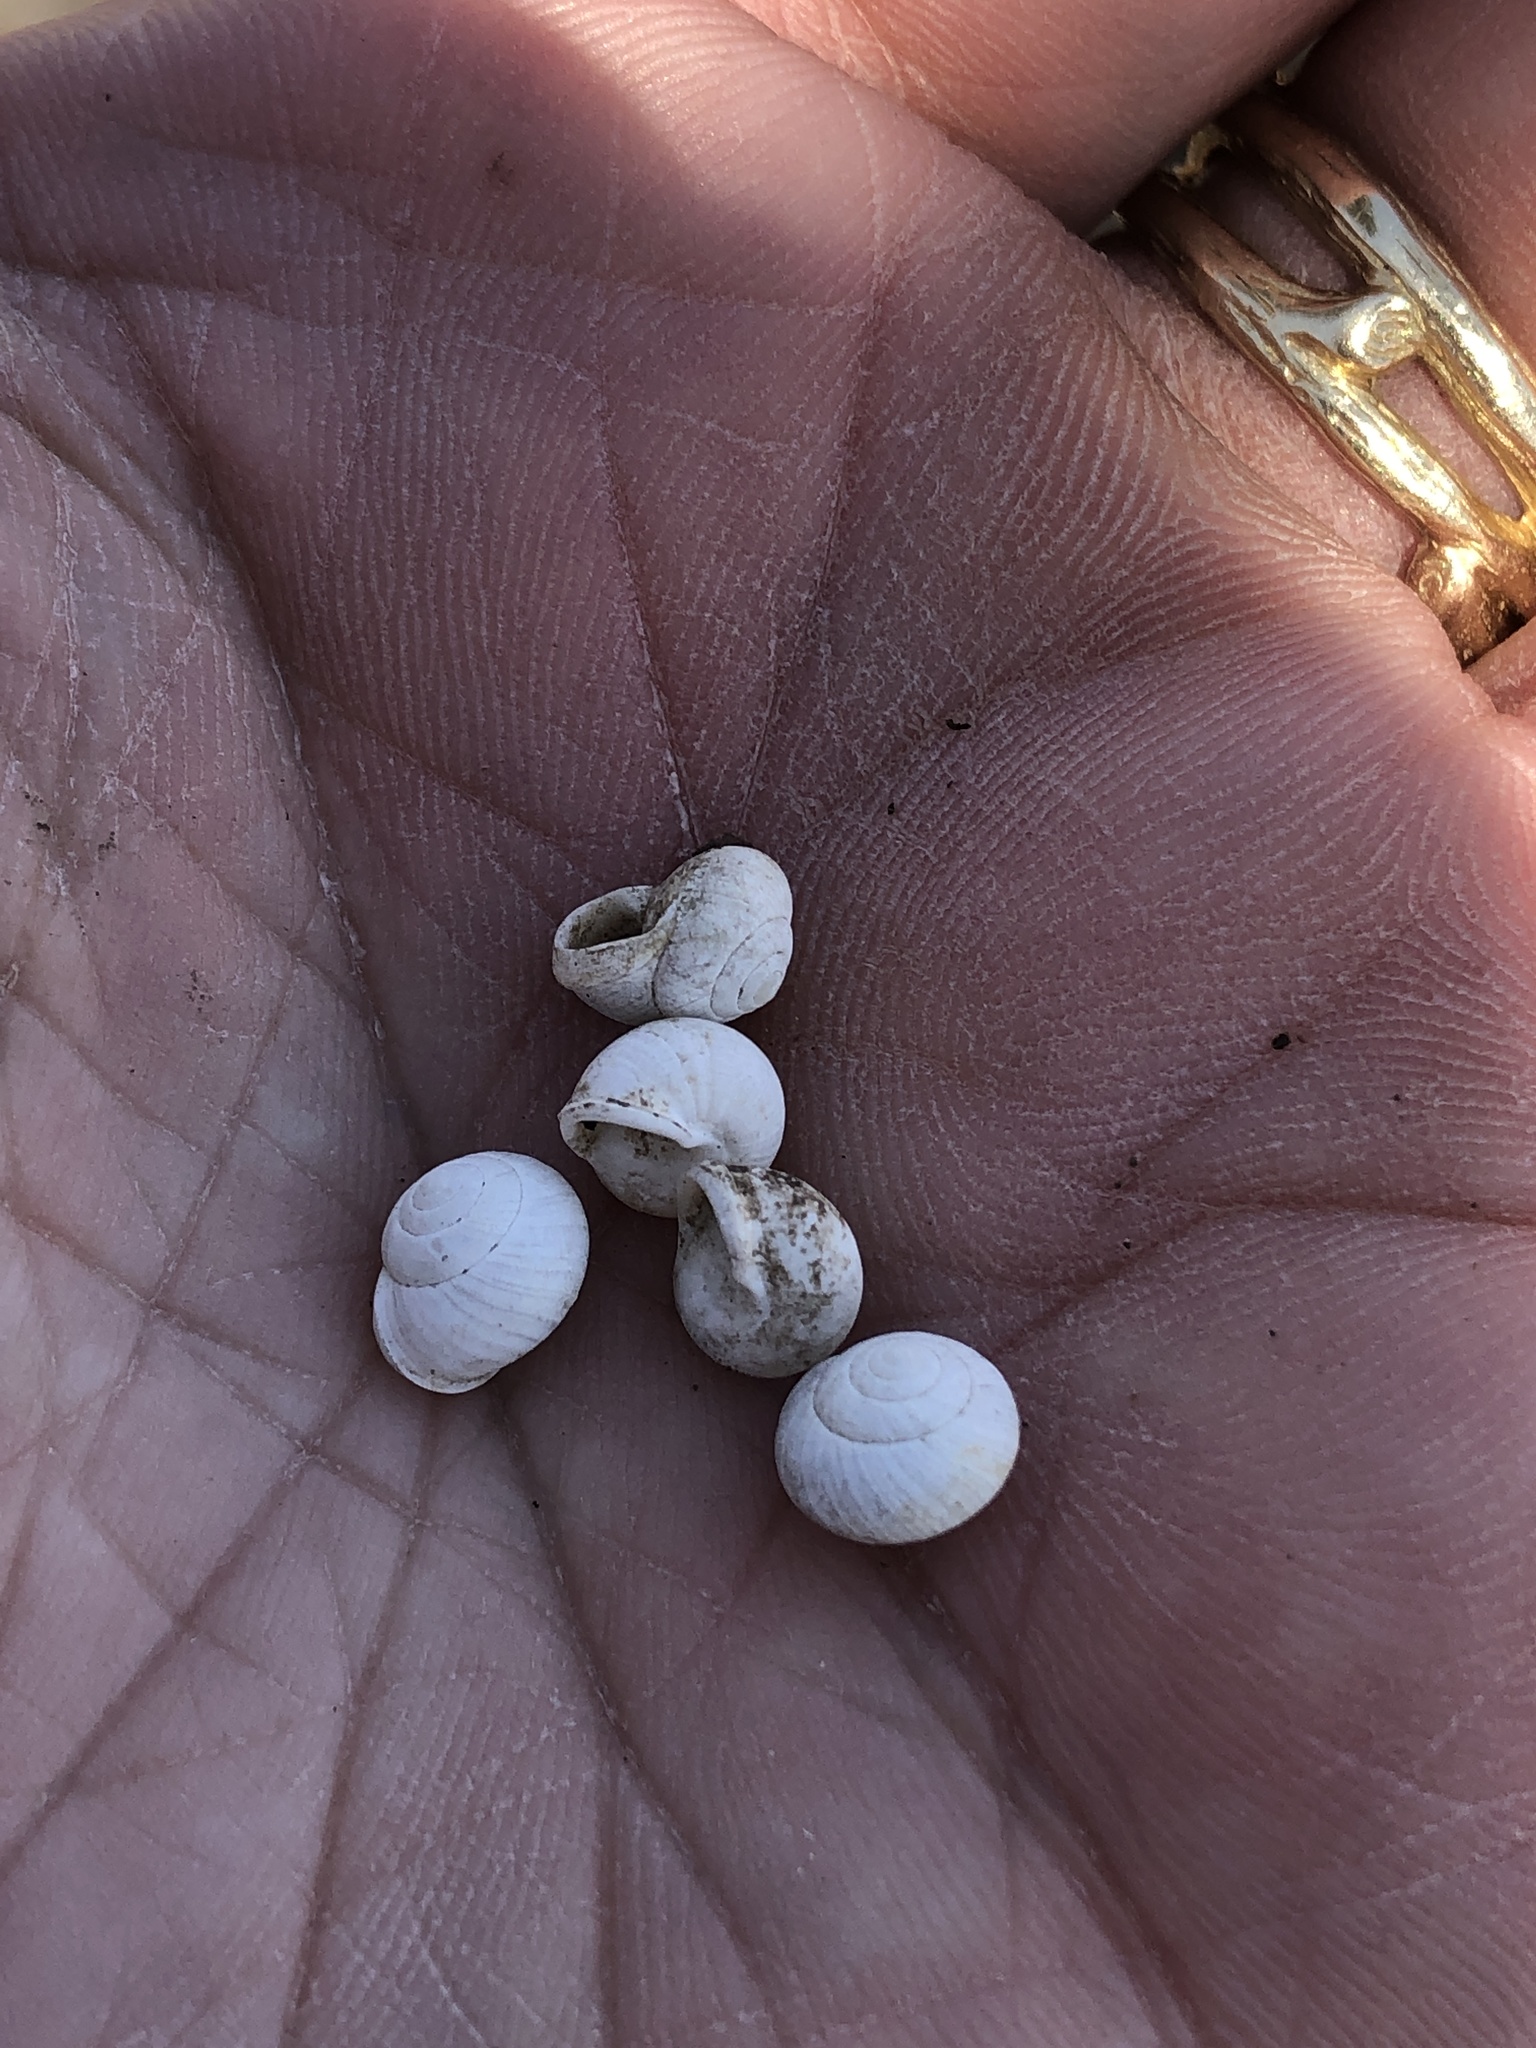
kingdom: Animalia
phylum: Mollusca
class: Gastropoda
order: Cycloneritida
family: Helicinidae
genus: Helicina
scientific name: Helicina orbiculata
